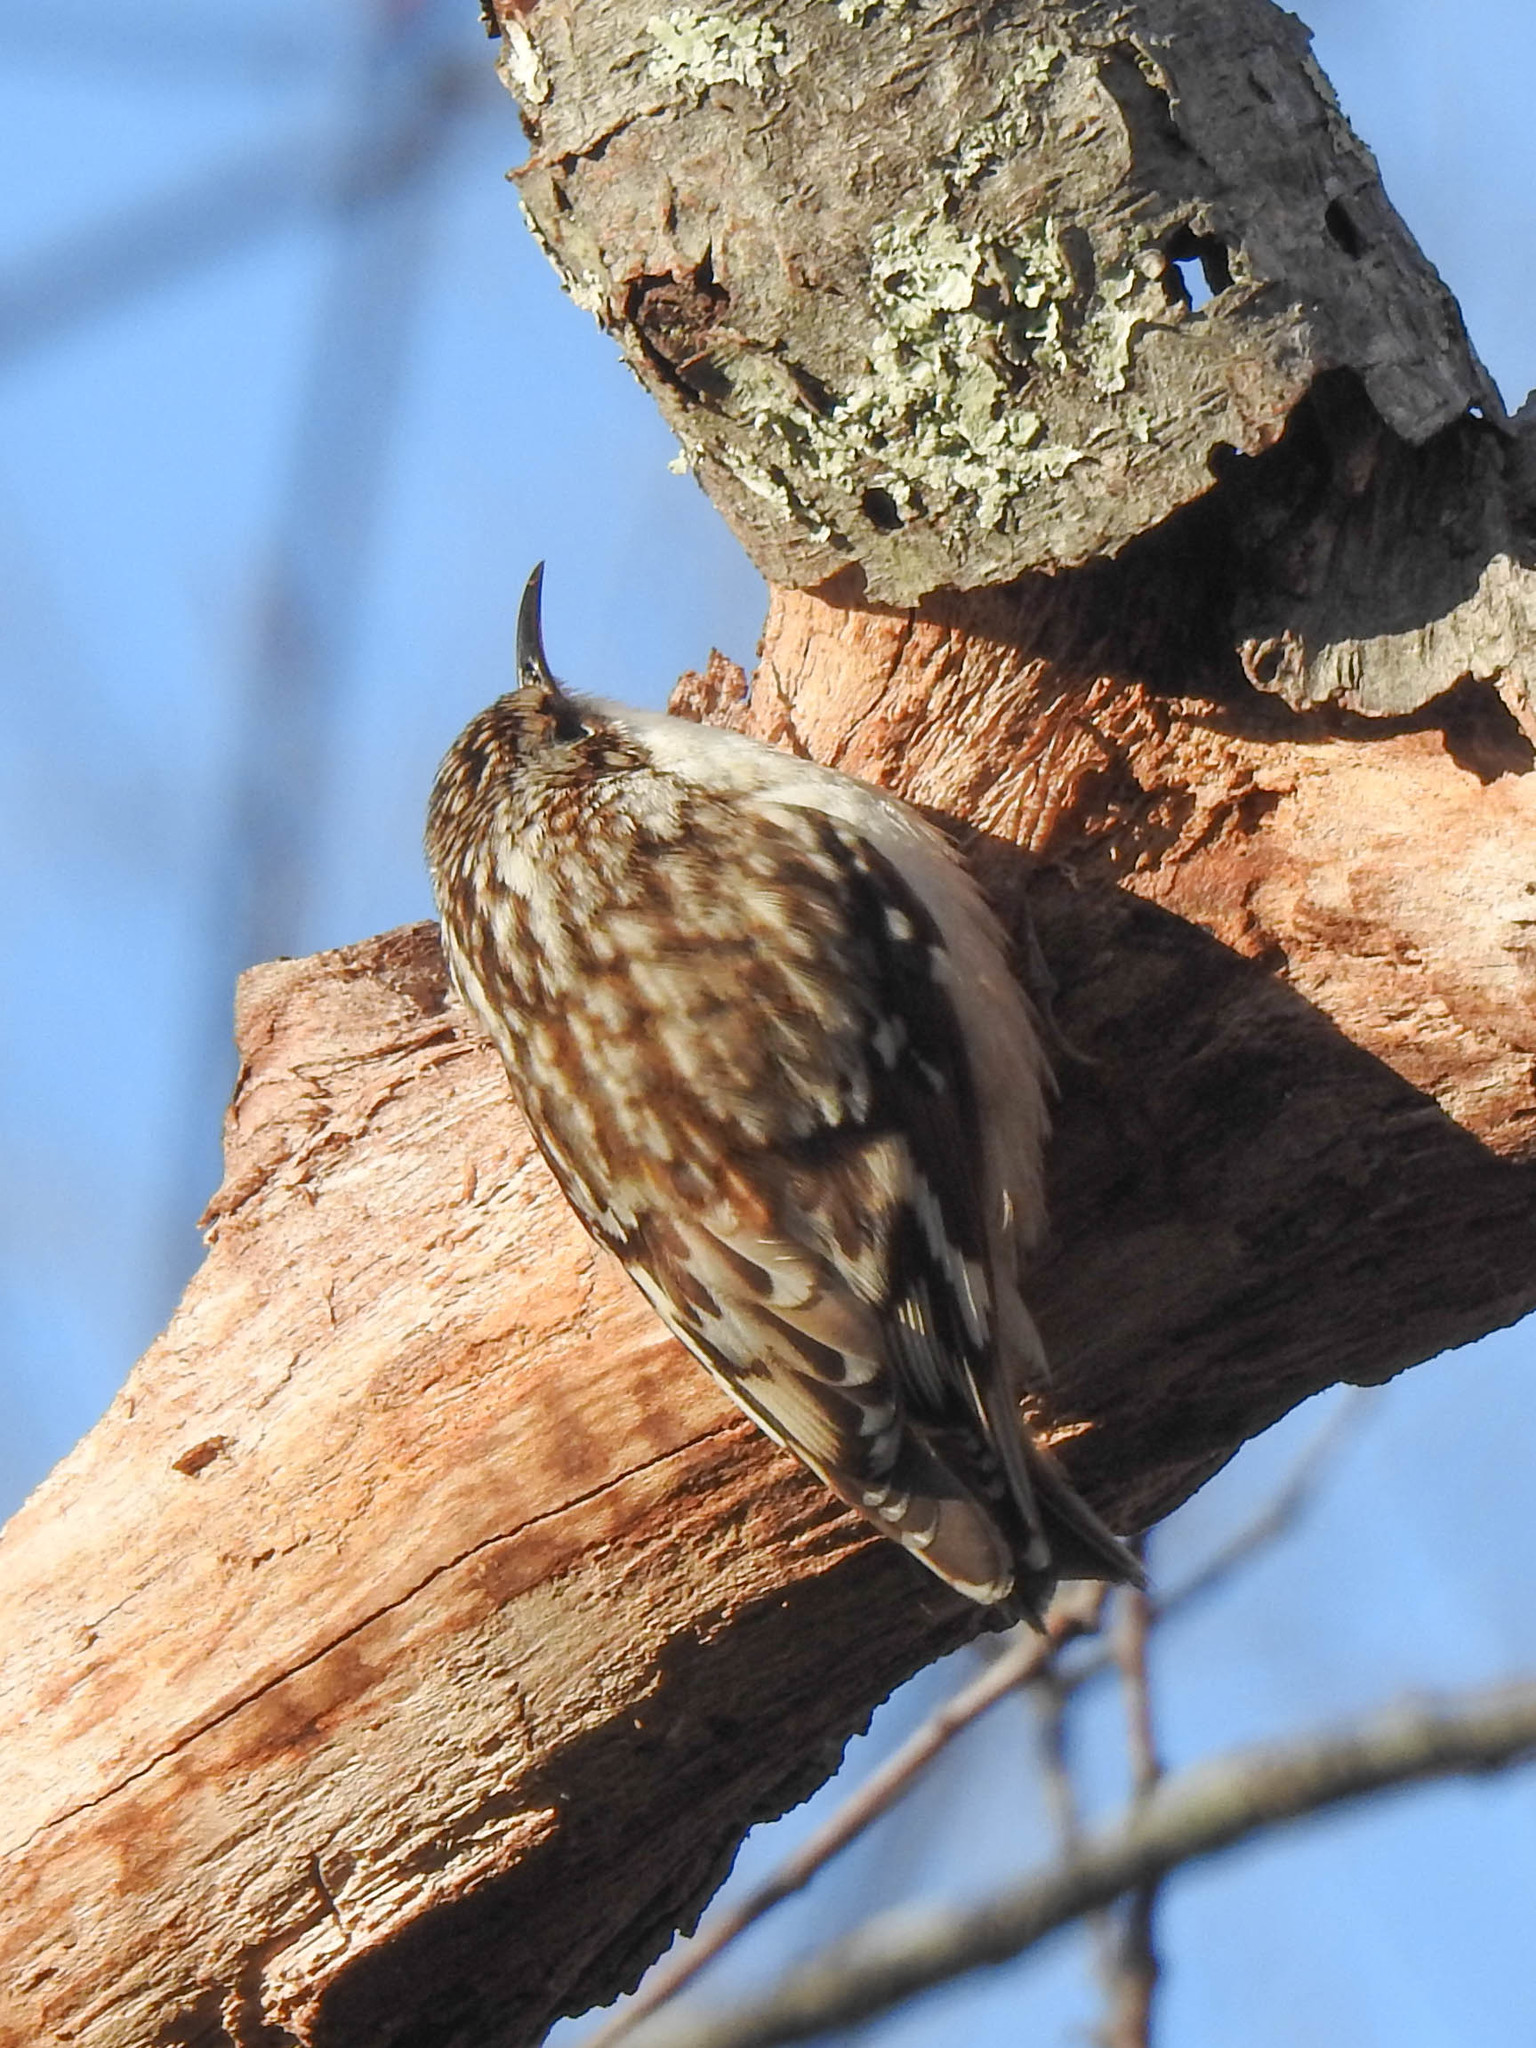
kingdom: Animalia
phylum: Chordata
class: Aves
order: Passeriformes
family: Certhiidae
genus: Certhia
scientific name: Certhia americana
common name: Brown creeper
